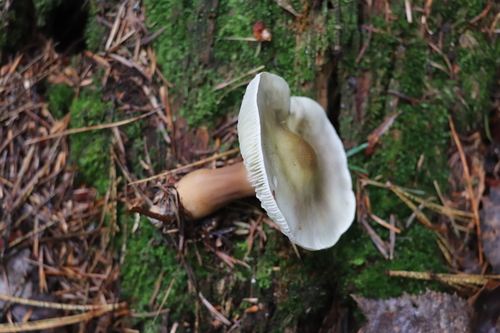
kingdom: Fungi
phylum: Basidiomycota
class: Agaricomycetes
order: Agaricales
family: Tricholomataceae
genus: Tricholoma
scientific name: Tricholoma rapipes
